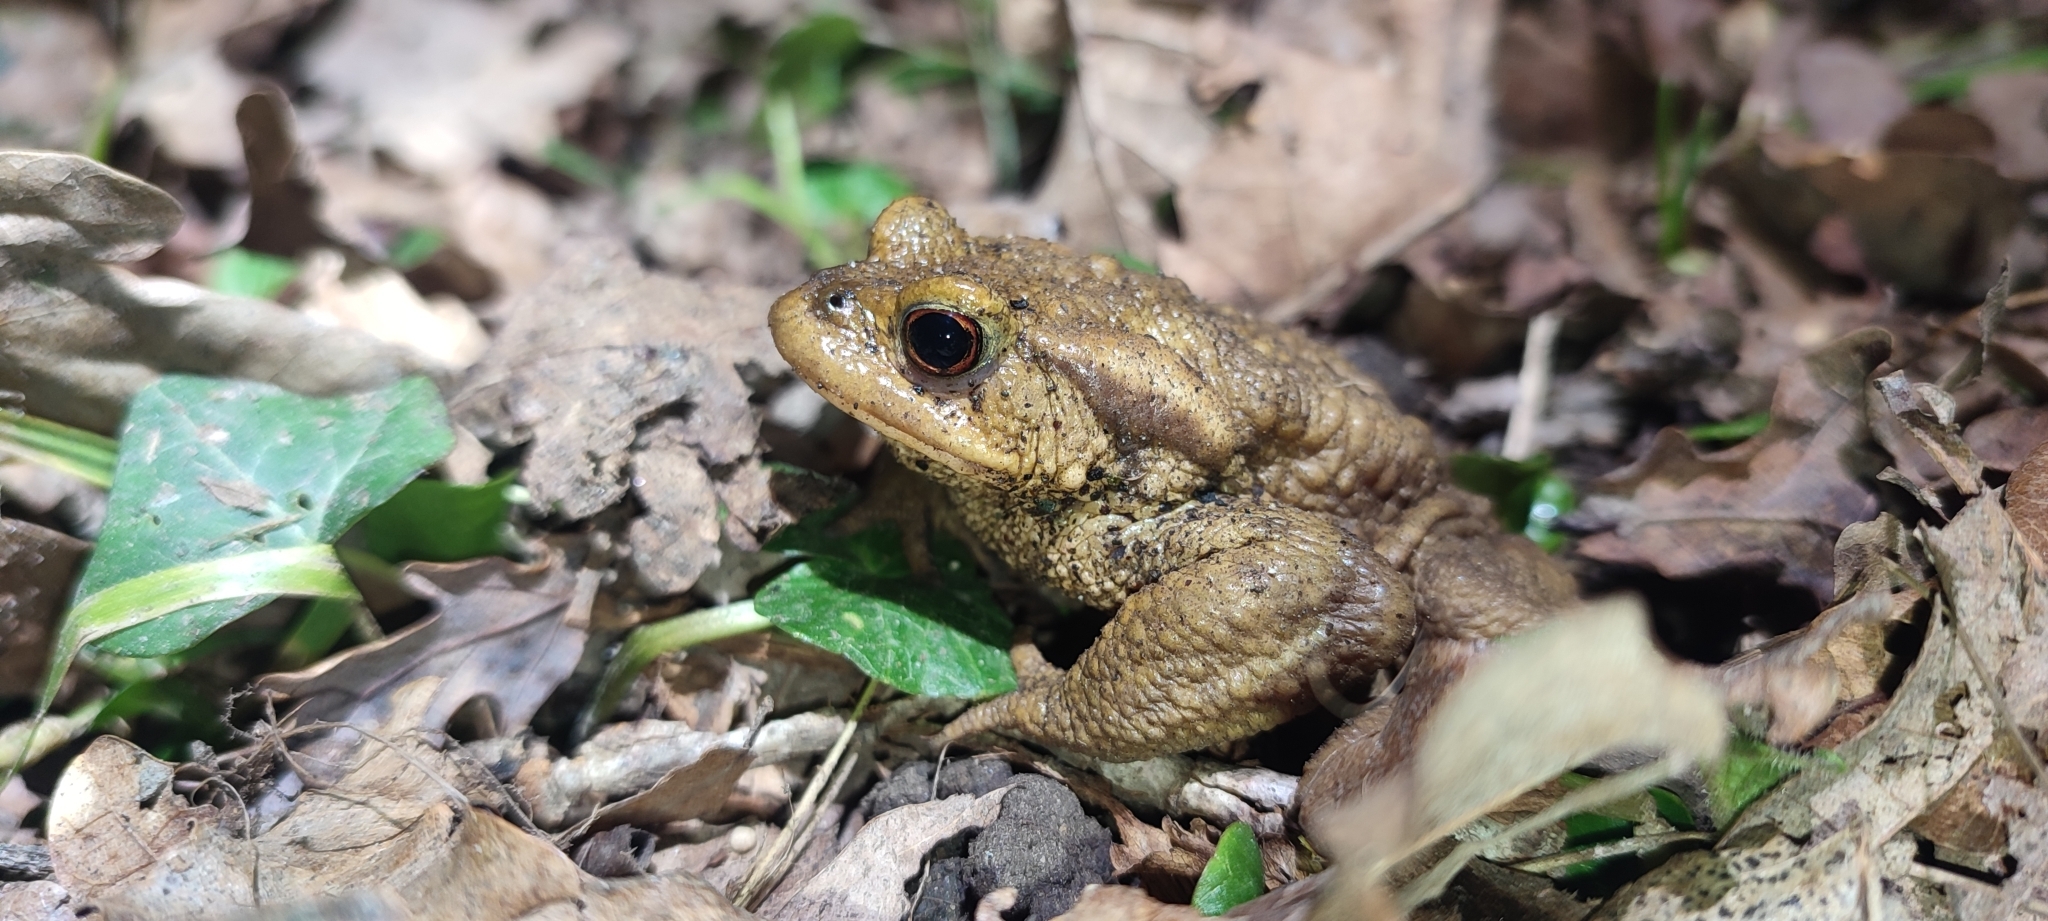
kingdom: Animalia
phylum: Chordata
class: Amphibia
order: Anura
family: Bufonidae
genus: Bufo
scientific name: Bufo spinosus
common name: Western common toad
